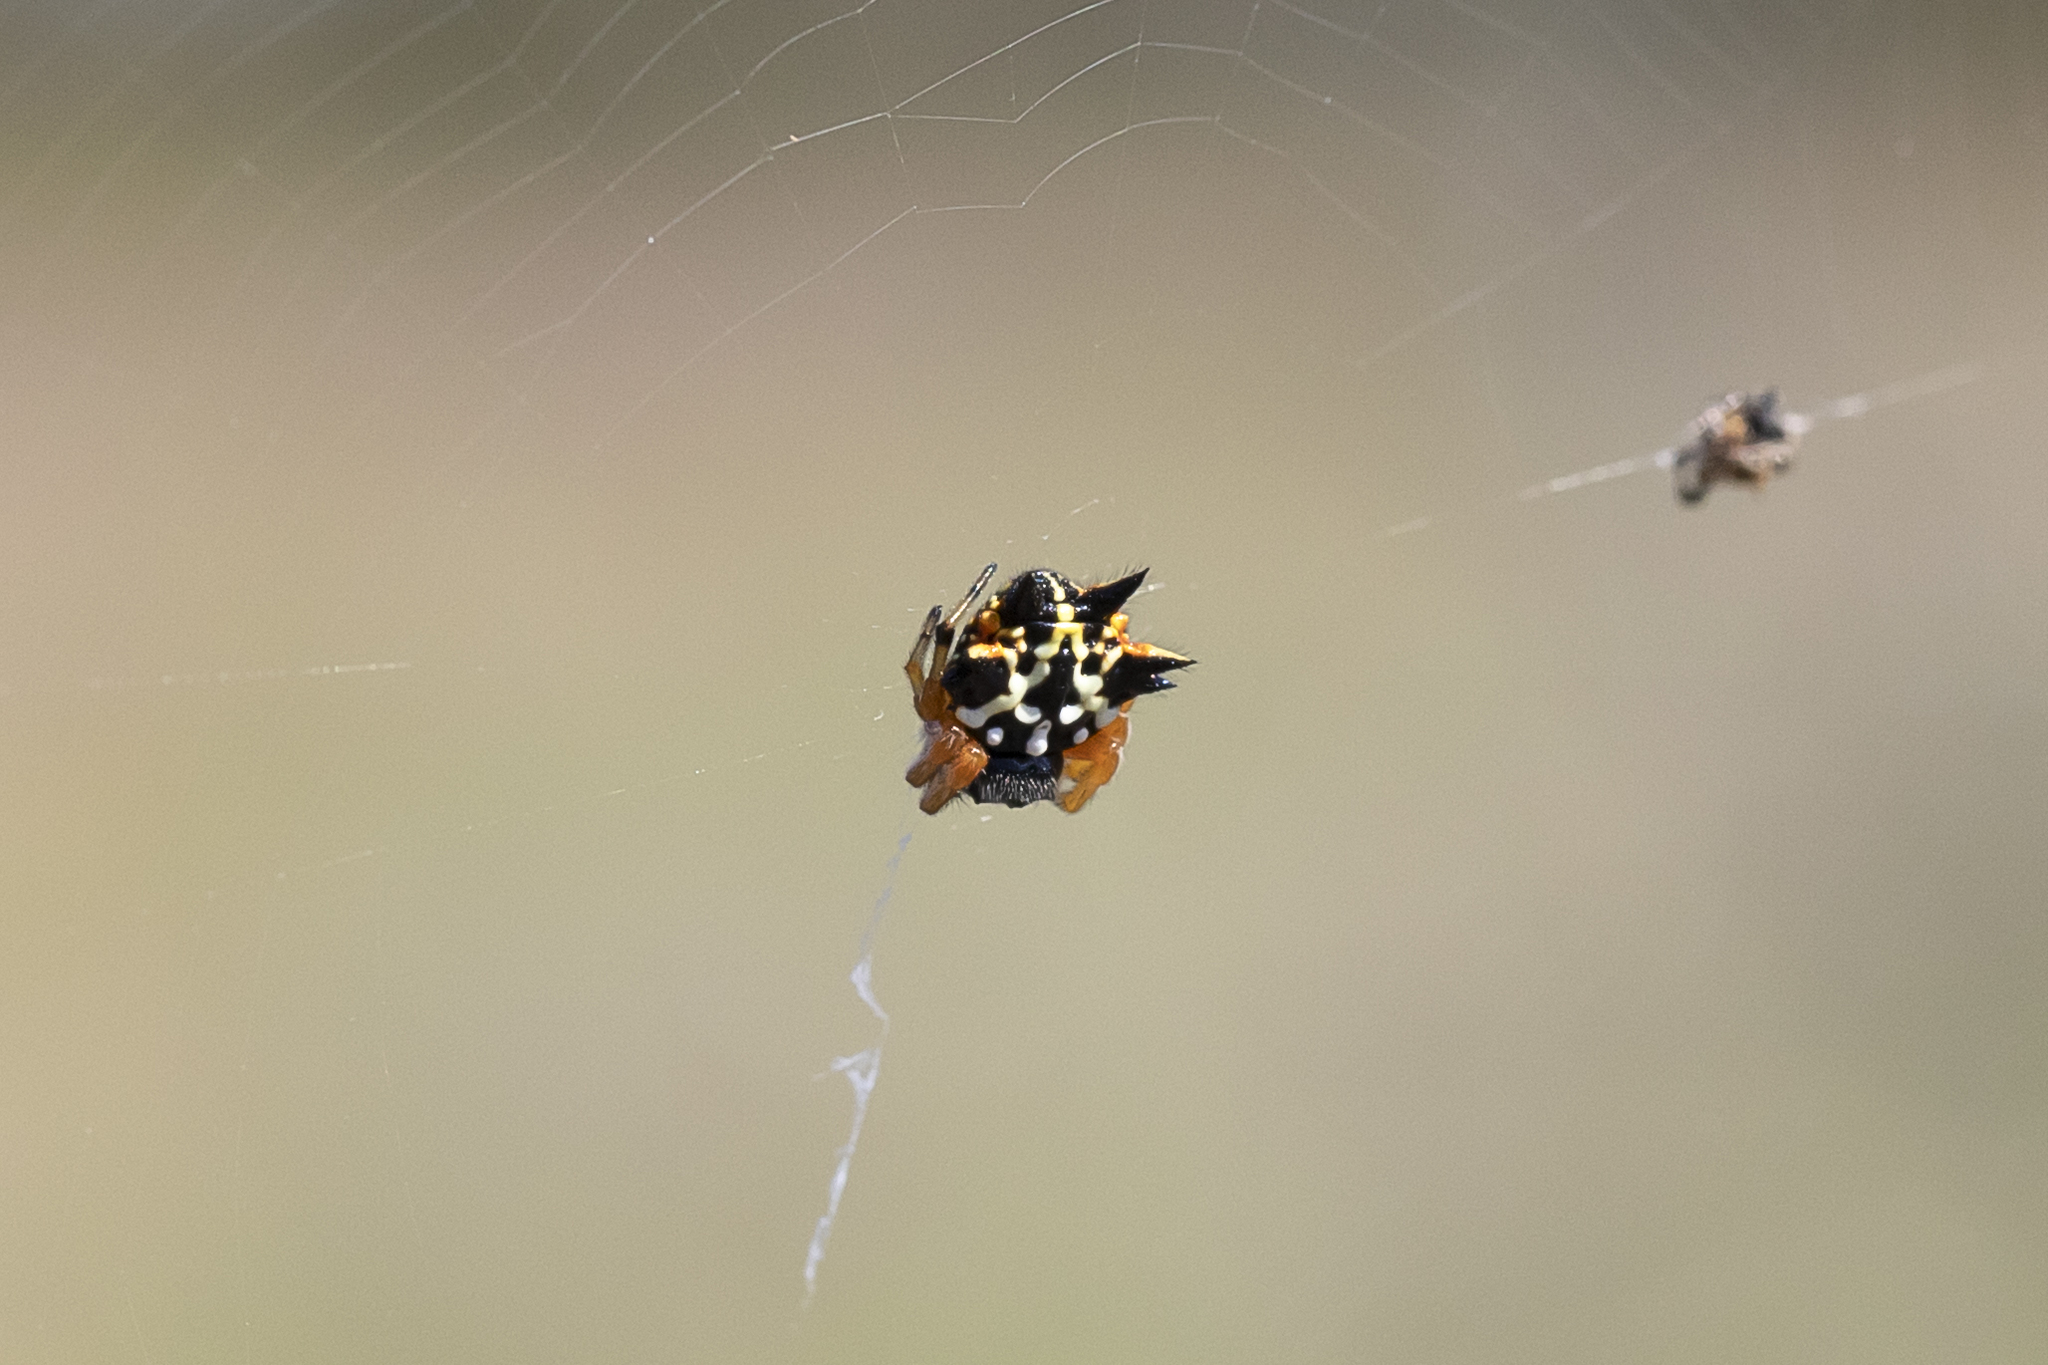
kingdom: Animalia
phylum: Arthropoda
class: Arachnida
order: Araneae
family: Araneidae
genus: Austracantha
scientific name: Austracantha minax
